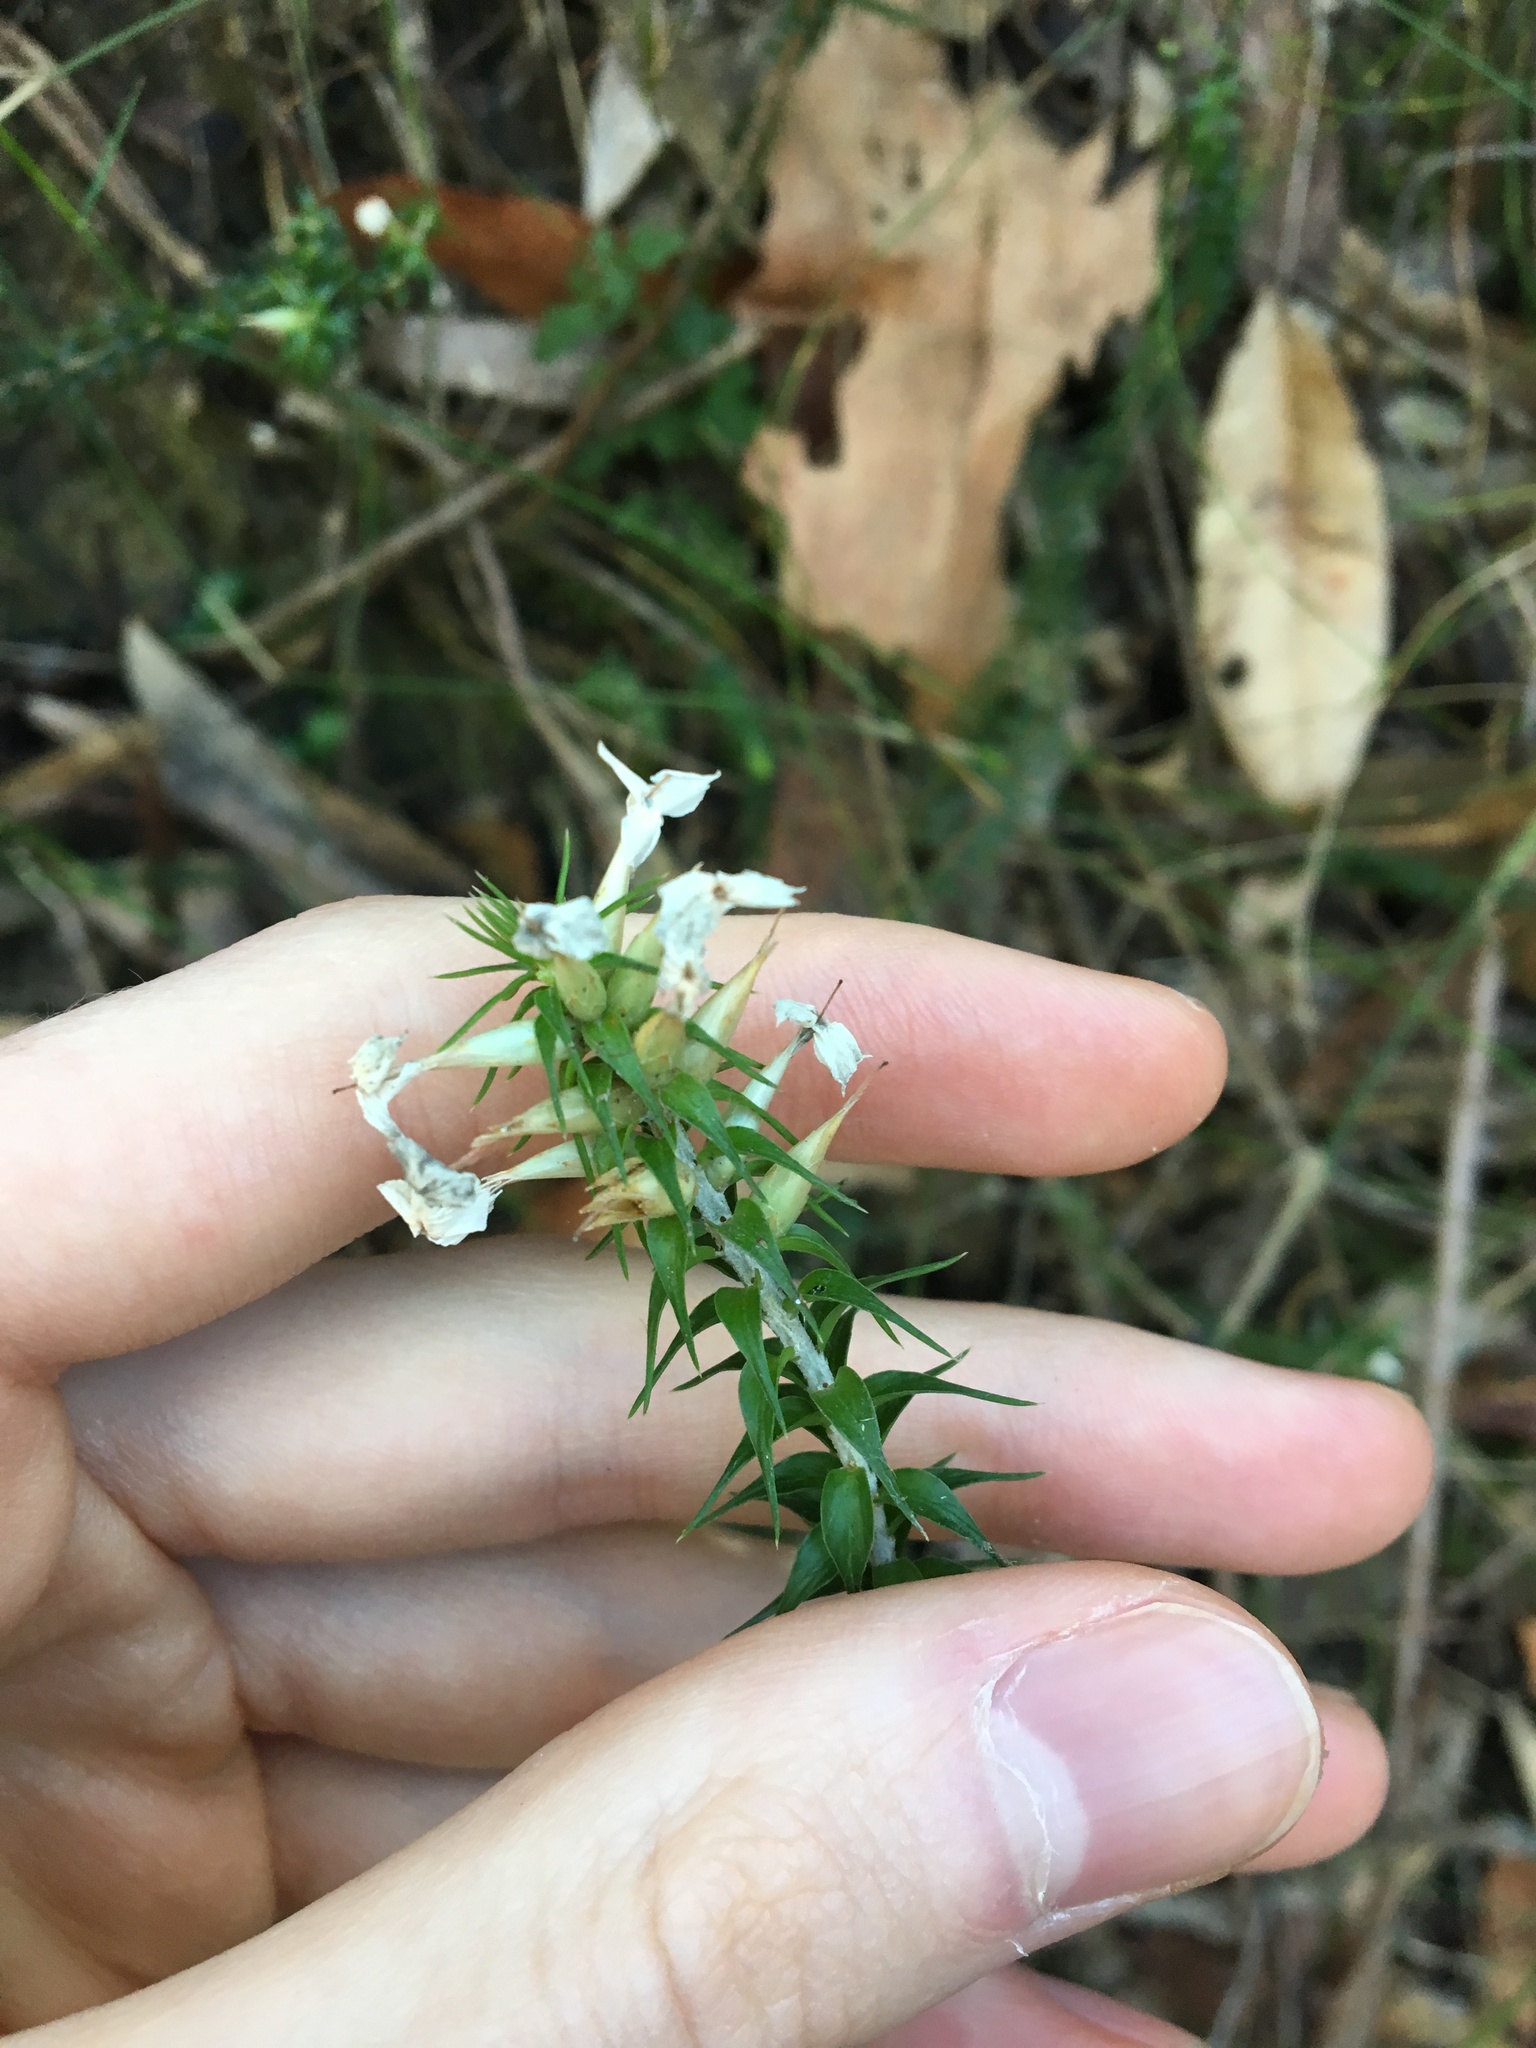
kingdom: Plantae
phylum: Tracheophyta
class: Magnoliopsida
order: Ericales
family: Ericaceae
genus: Woollsia
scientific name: Woollsia pungens
